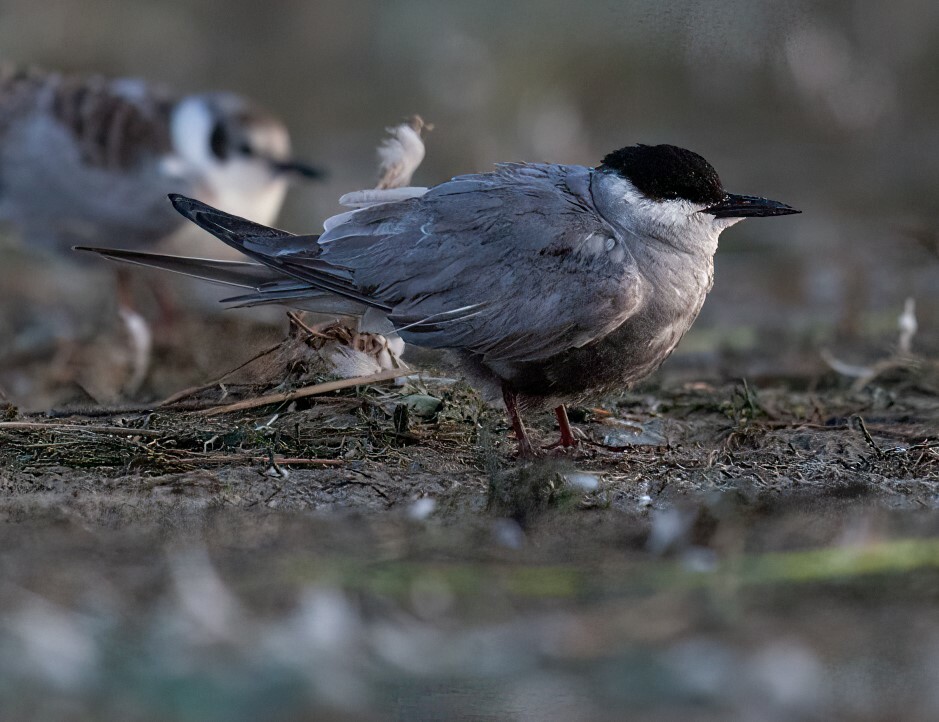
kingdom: Animalia
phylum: Chordata
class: Aves
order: Charadriiformes
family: Laridae
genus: Chlidonias
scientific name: Chlidonias hybrida
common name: Whiskered tern
